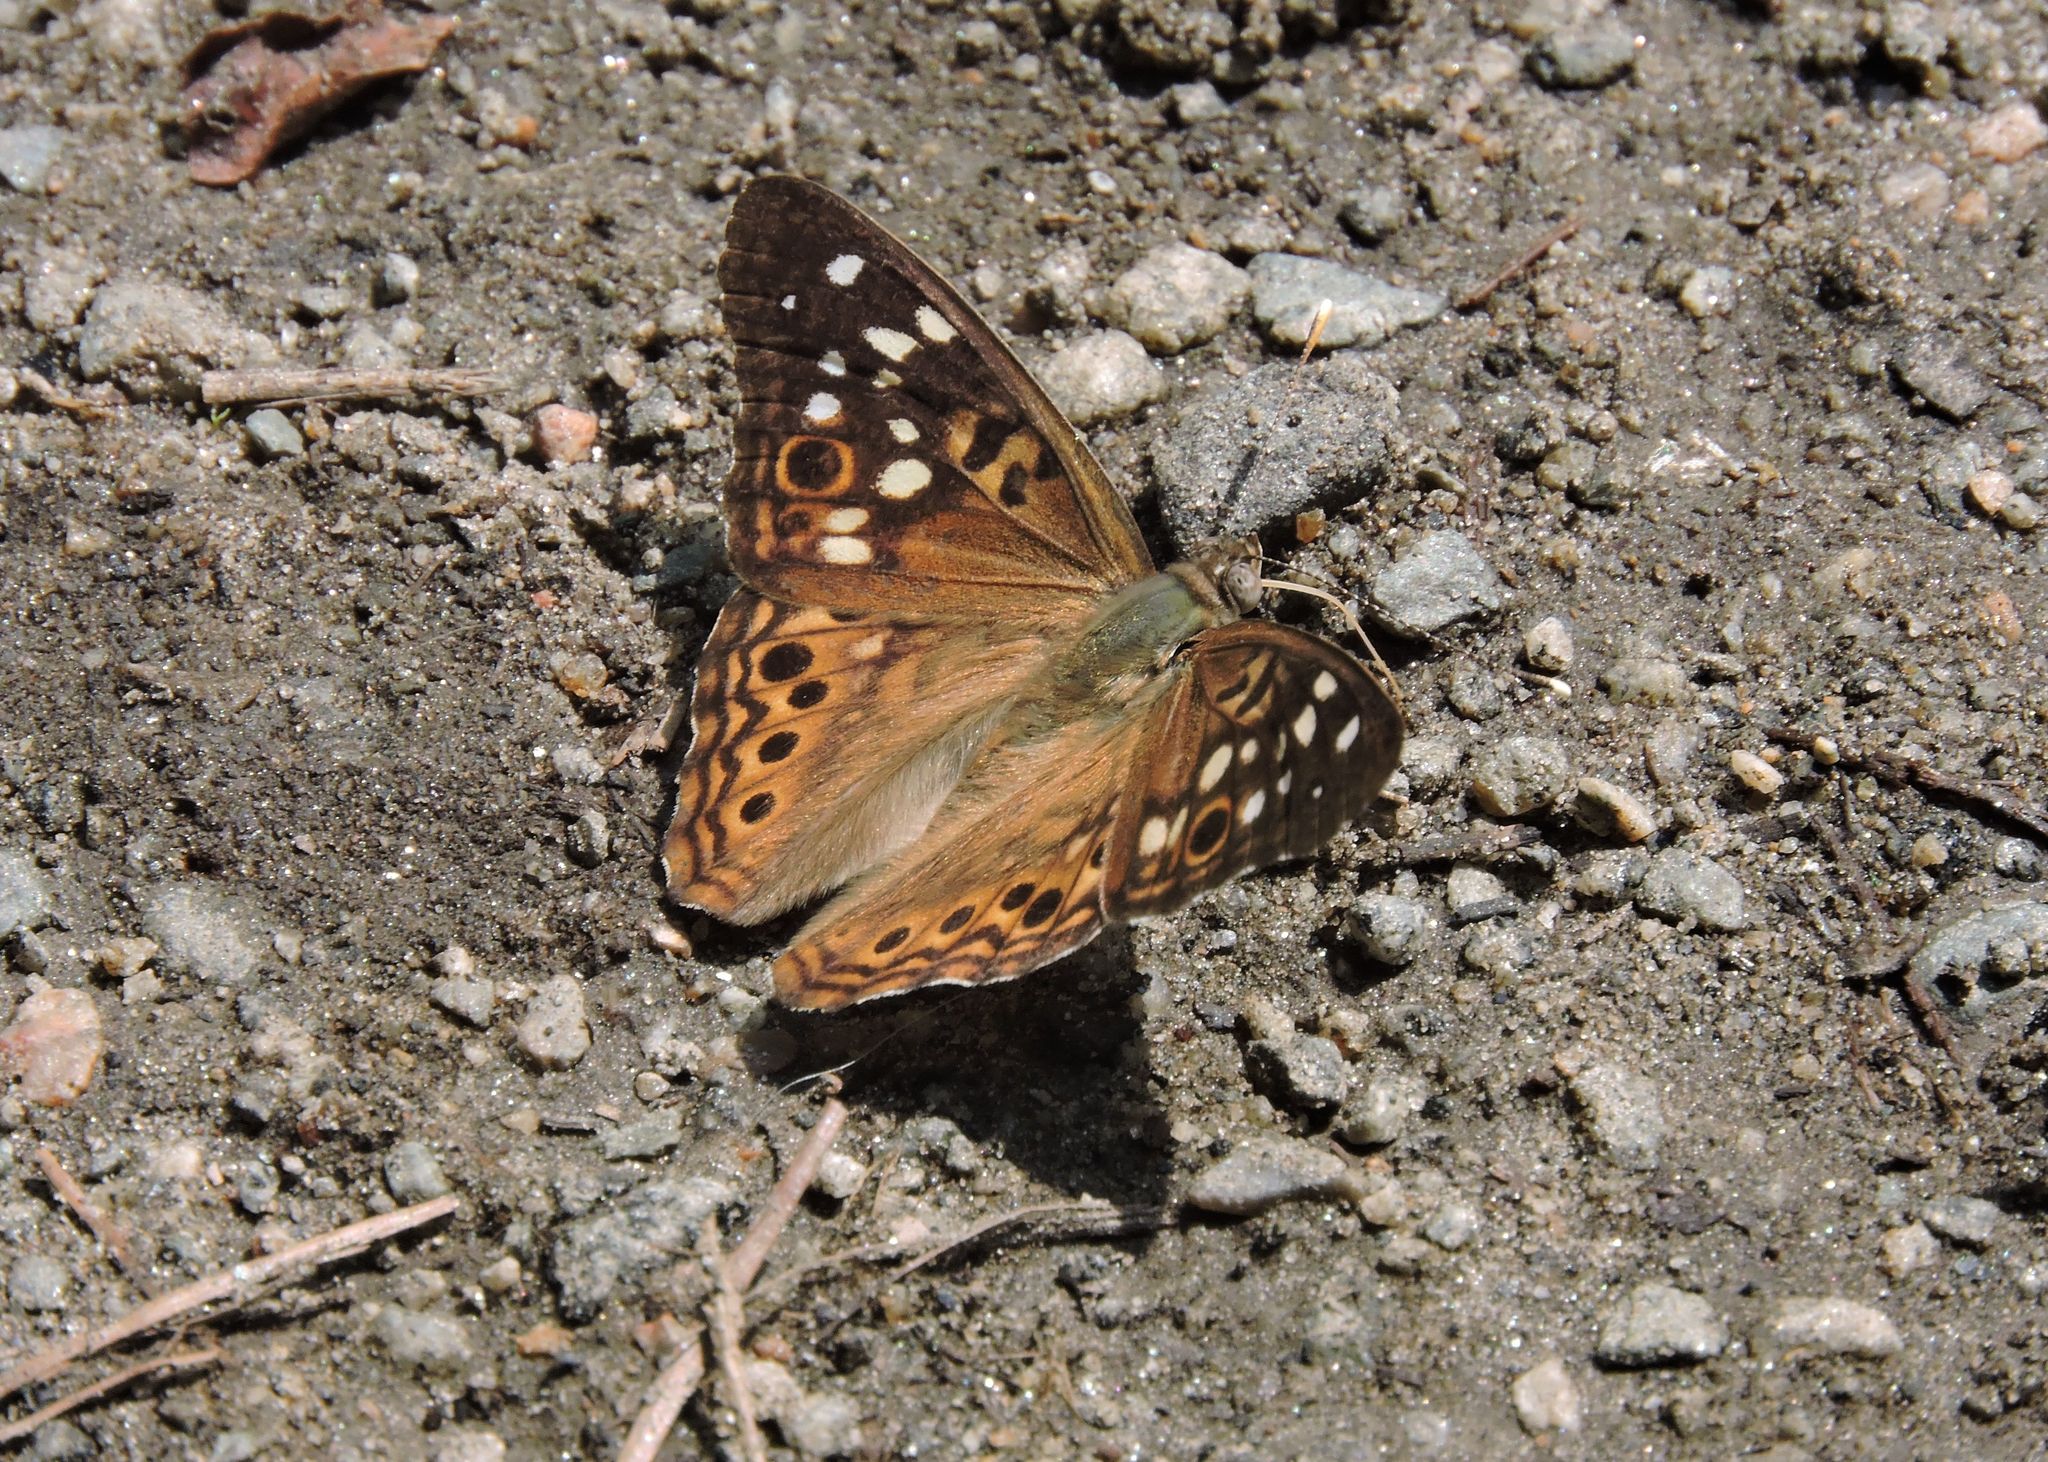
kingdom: Animalia
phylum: Arthropoda
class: Insecta
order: Lepidoptera
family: Nymphalidae
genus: Asterocampa
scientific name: Asterocampa celtis
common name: Hackberry emperor
